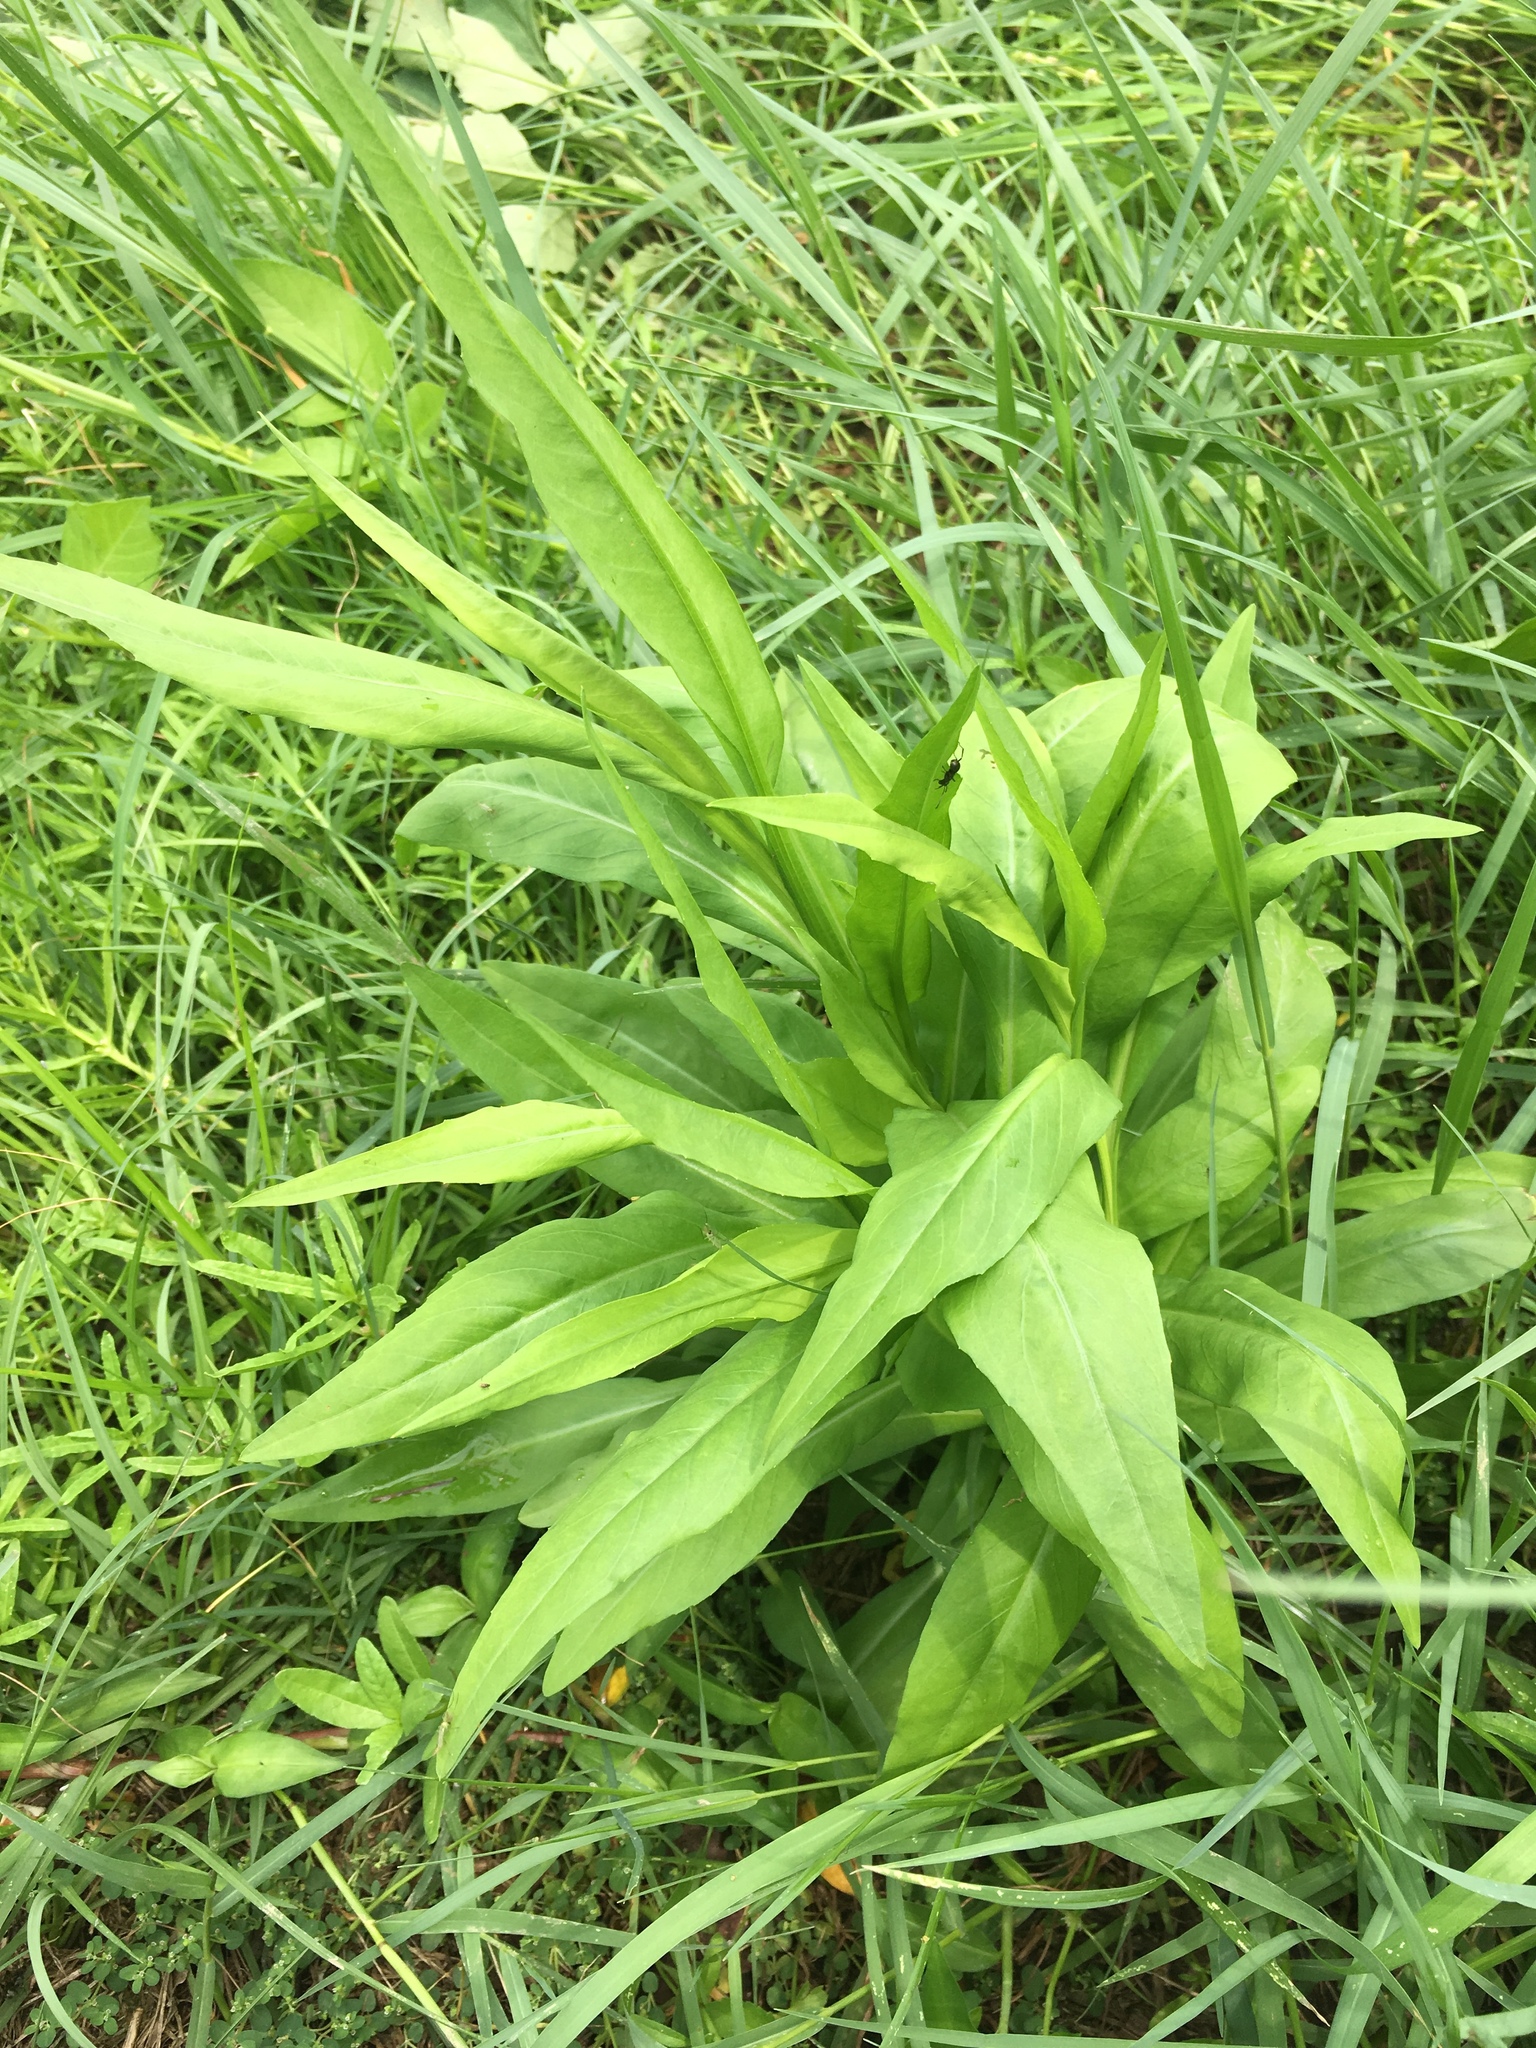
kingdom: Plantae
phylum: Tracheophyta
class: Magnoliopsida
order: Asterales
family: Asteraceae
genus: Symphyotrichum
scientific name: Symphyotrichum subulatum
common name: Annual saltmarsh aster
